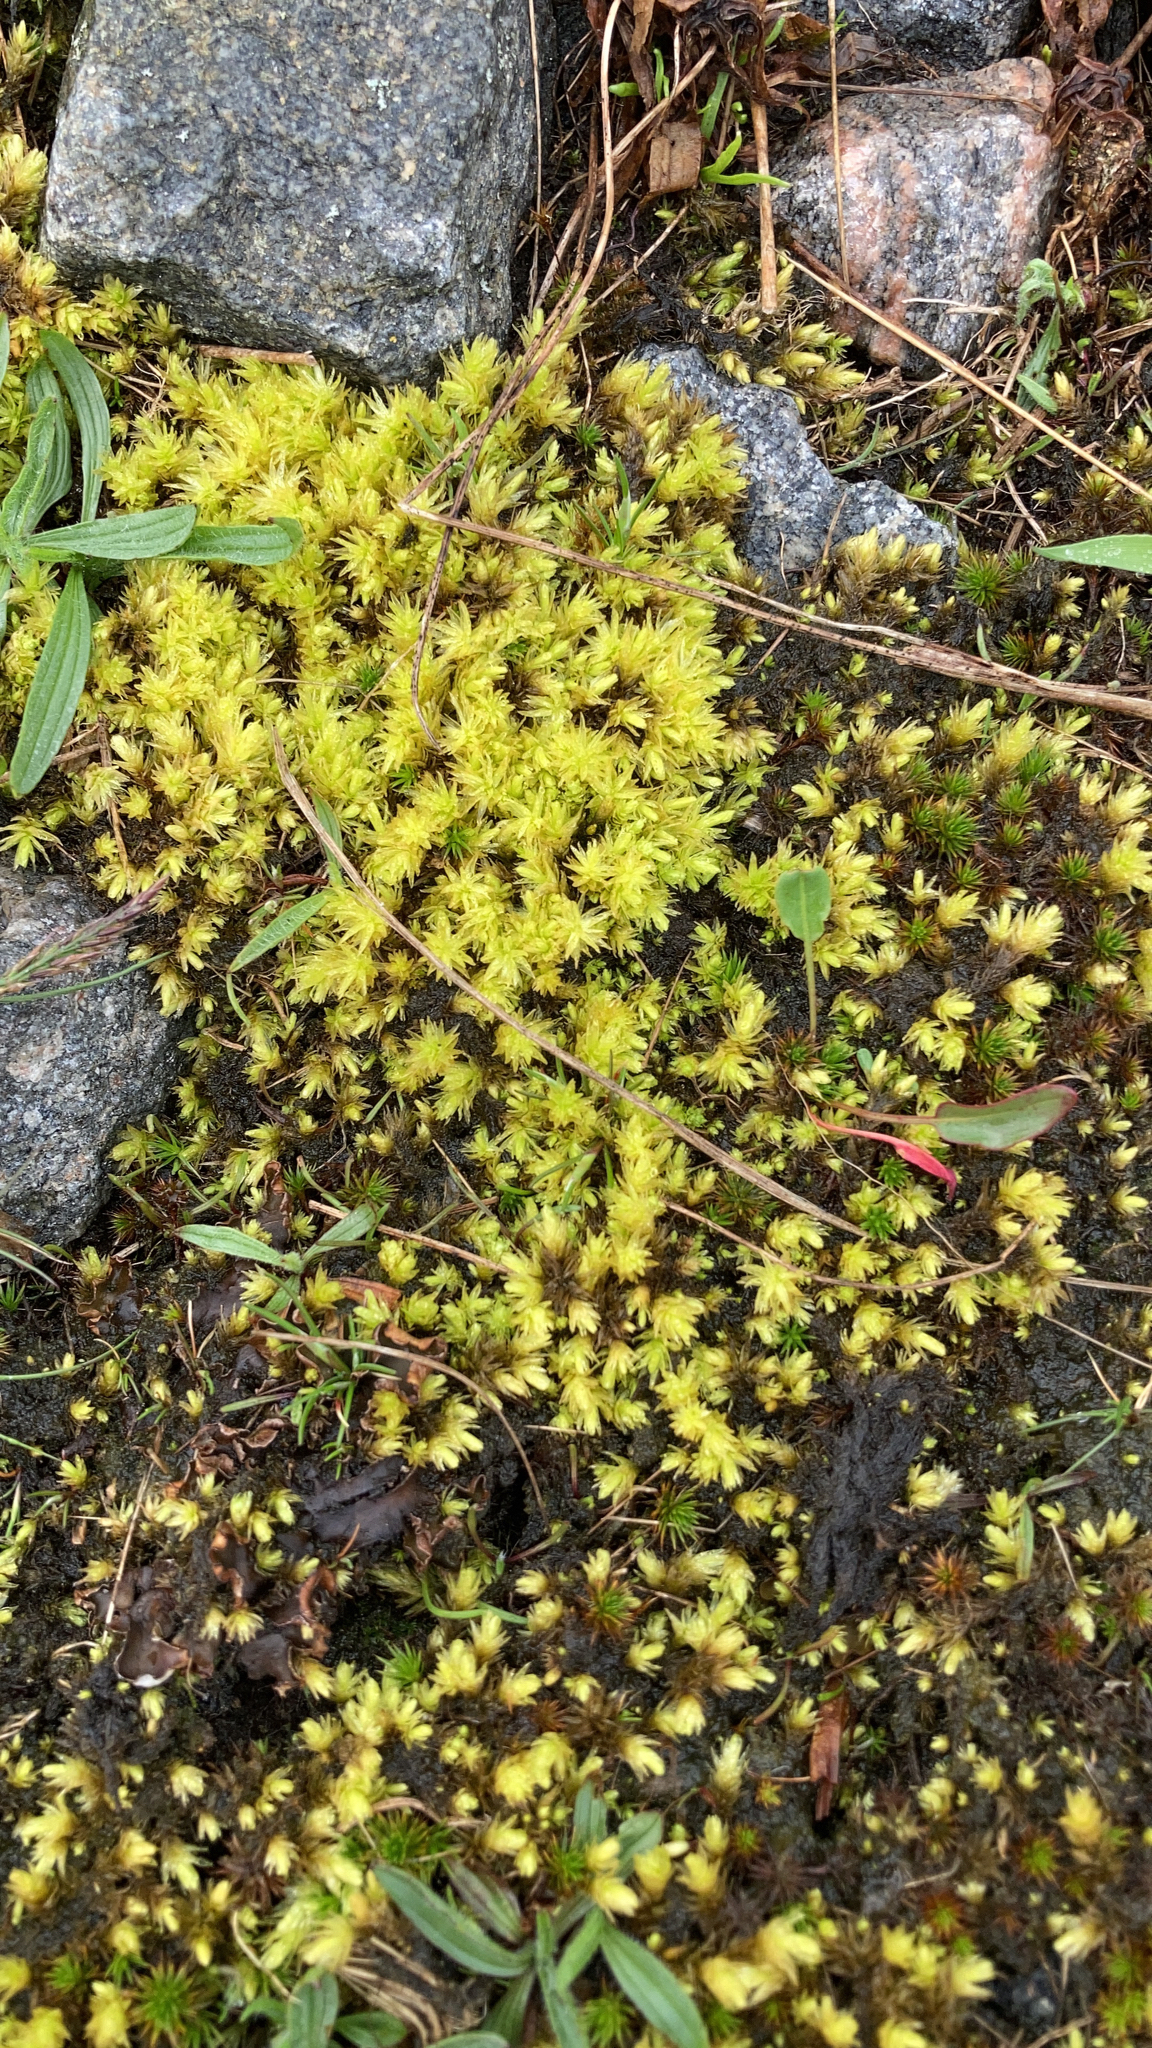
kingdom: Plantae
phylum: Bryophyta
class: Bryopsida
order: Aulacomniales
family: Aulacomniaceae
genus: Aulacomnium
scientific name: Aulacomnium palustre
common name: Bog groove-moss
